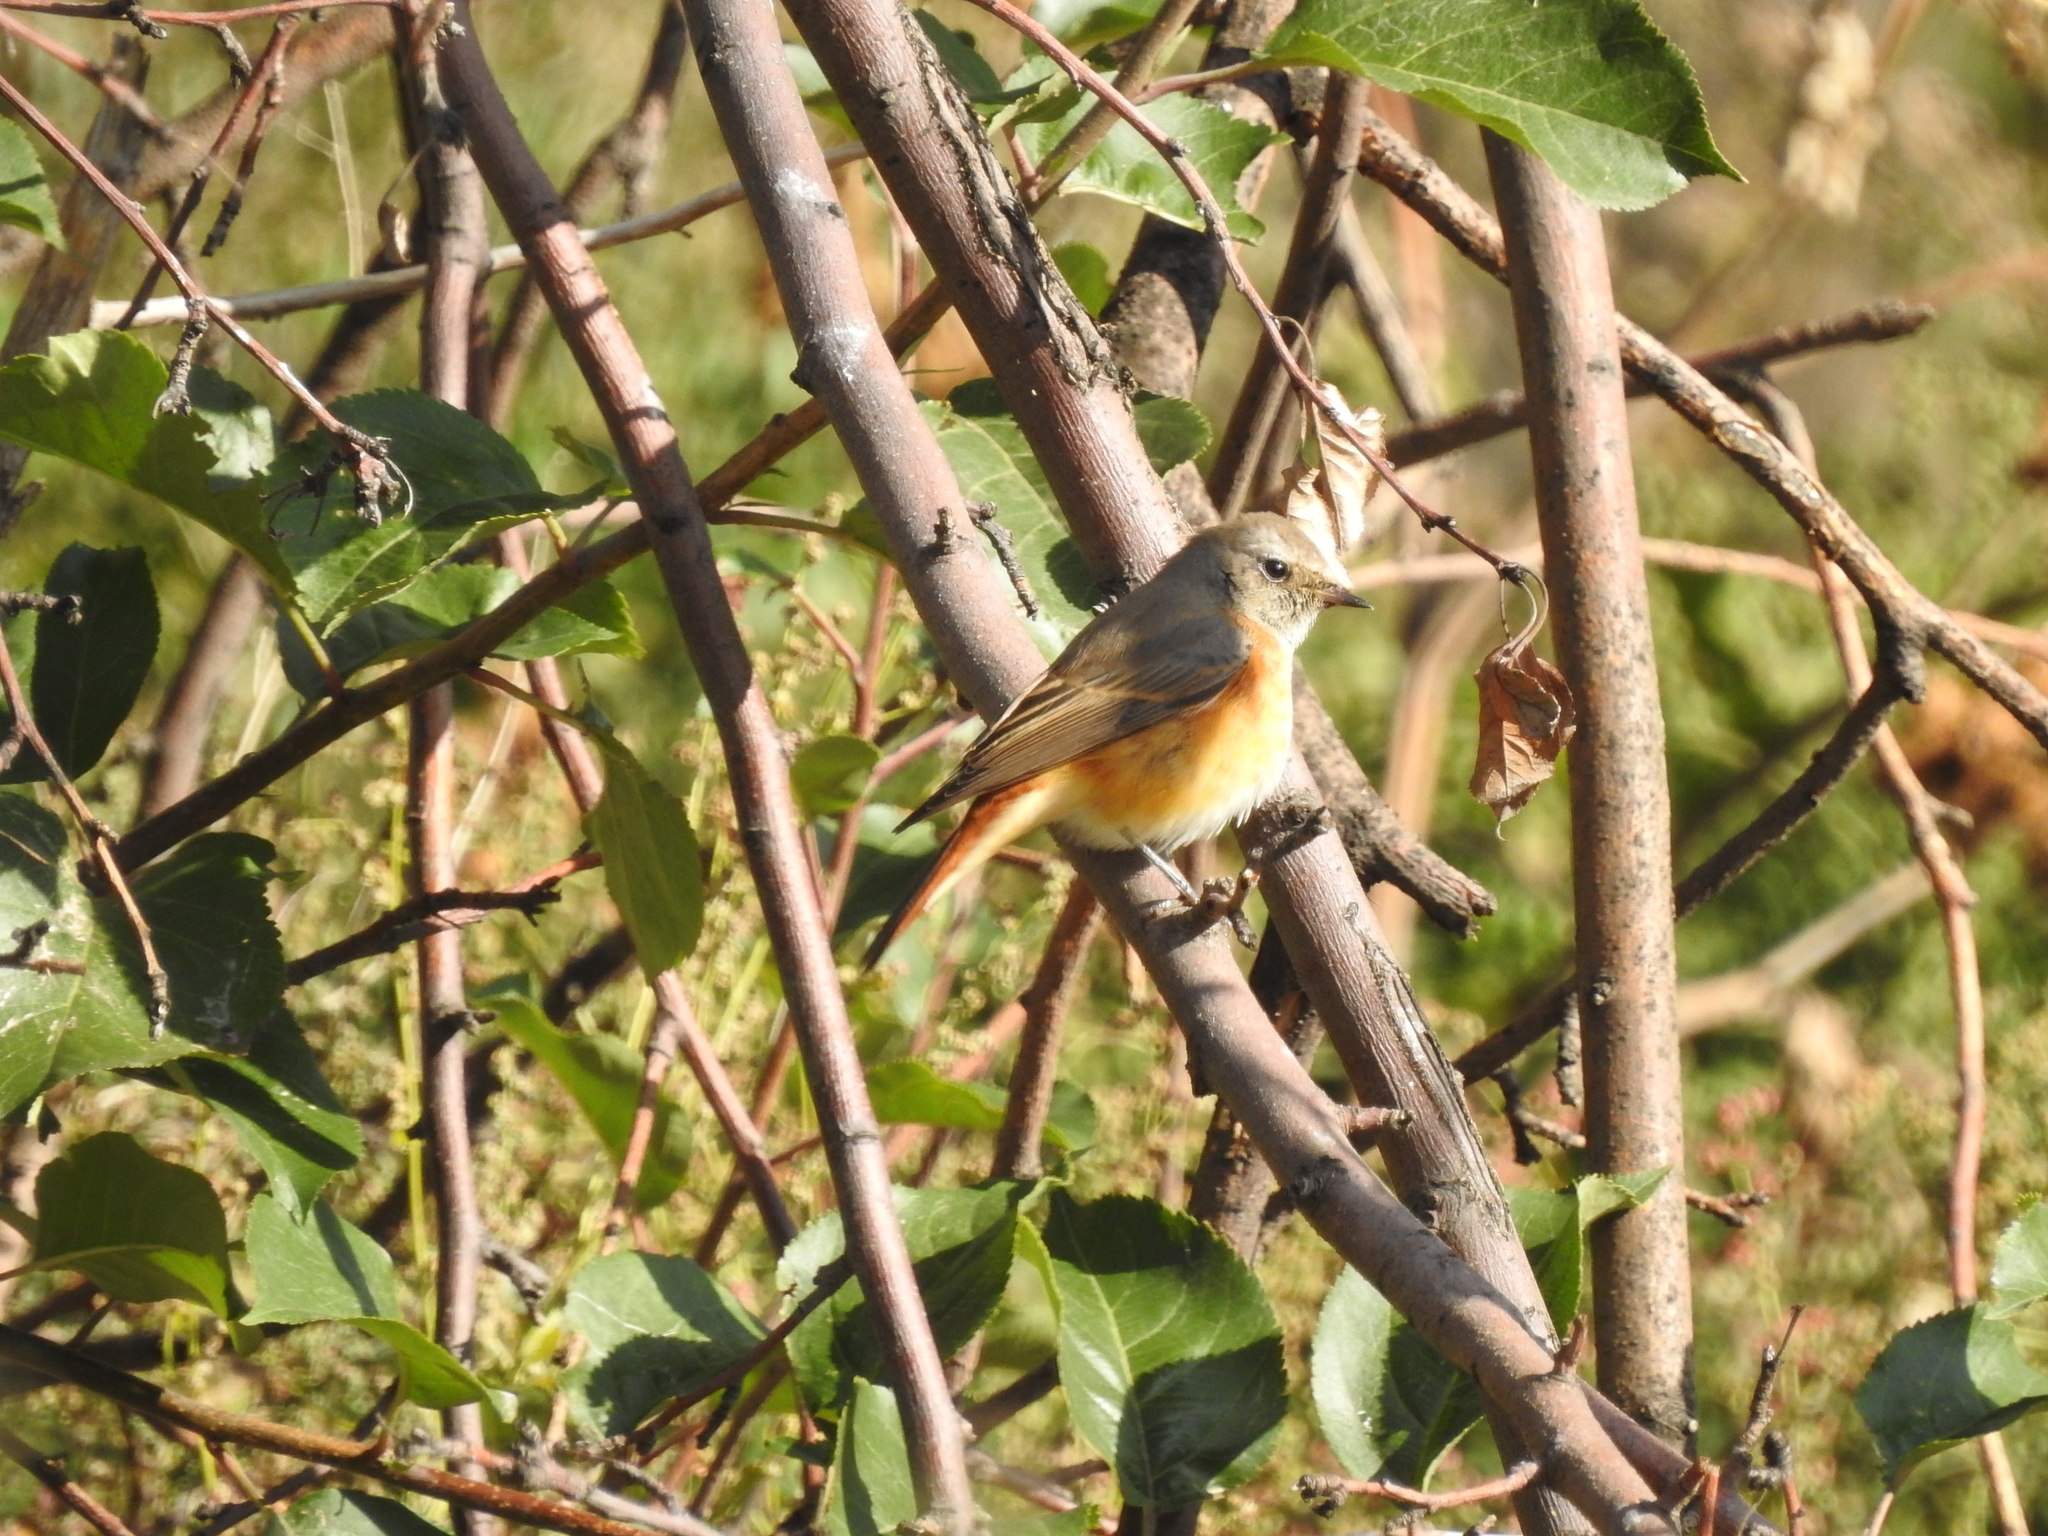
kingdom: Animalia
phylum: Chordata
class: Aves
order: Passeriformes
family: Muscicapidae
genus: Phoenicurus
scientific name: Phoenicurus phoenicurus
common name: Common redstart
